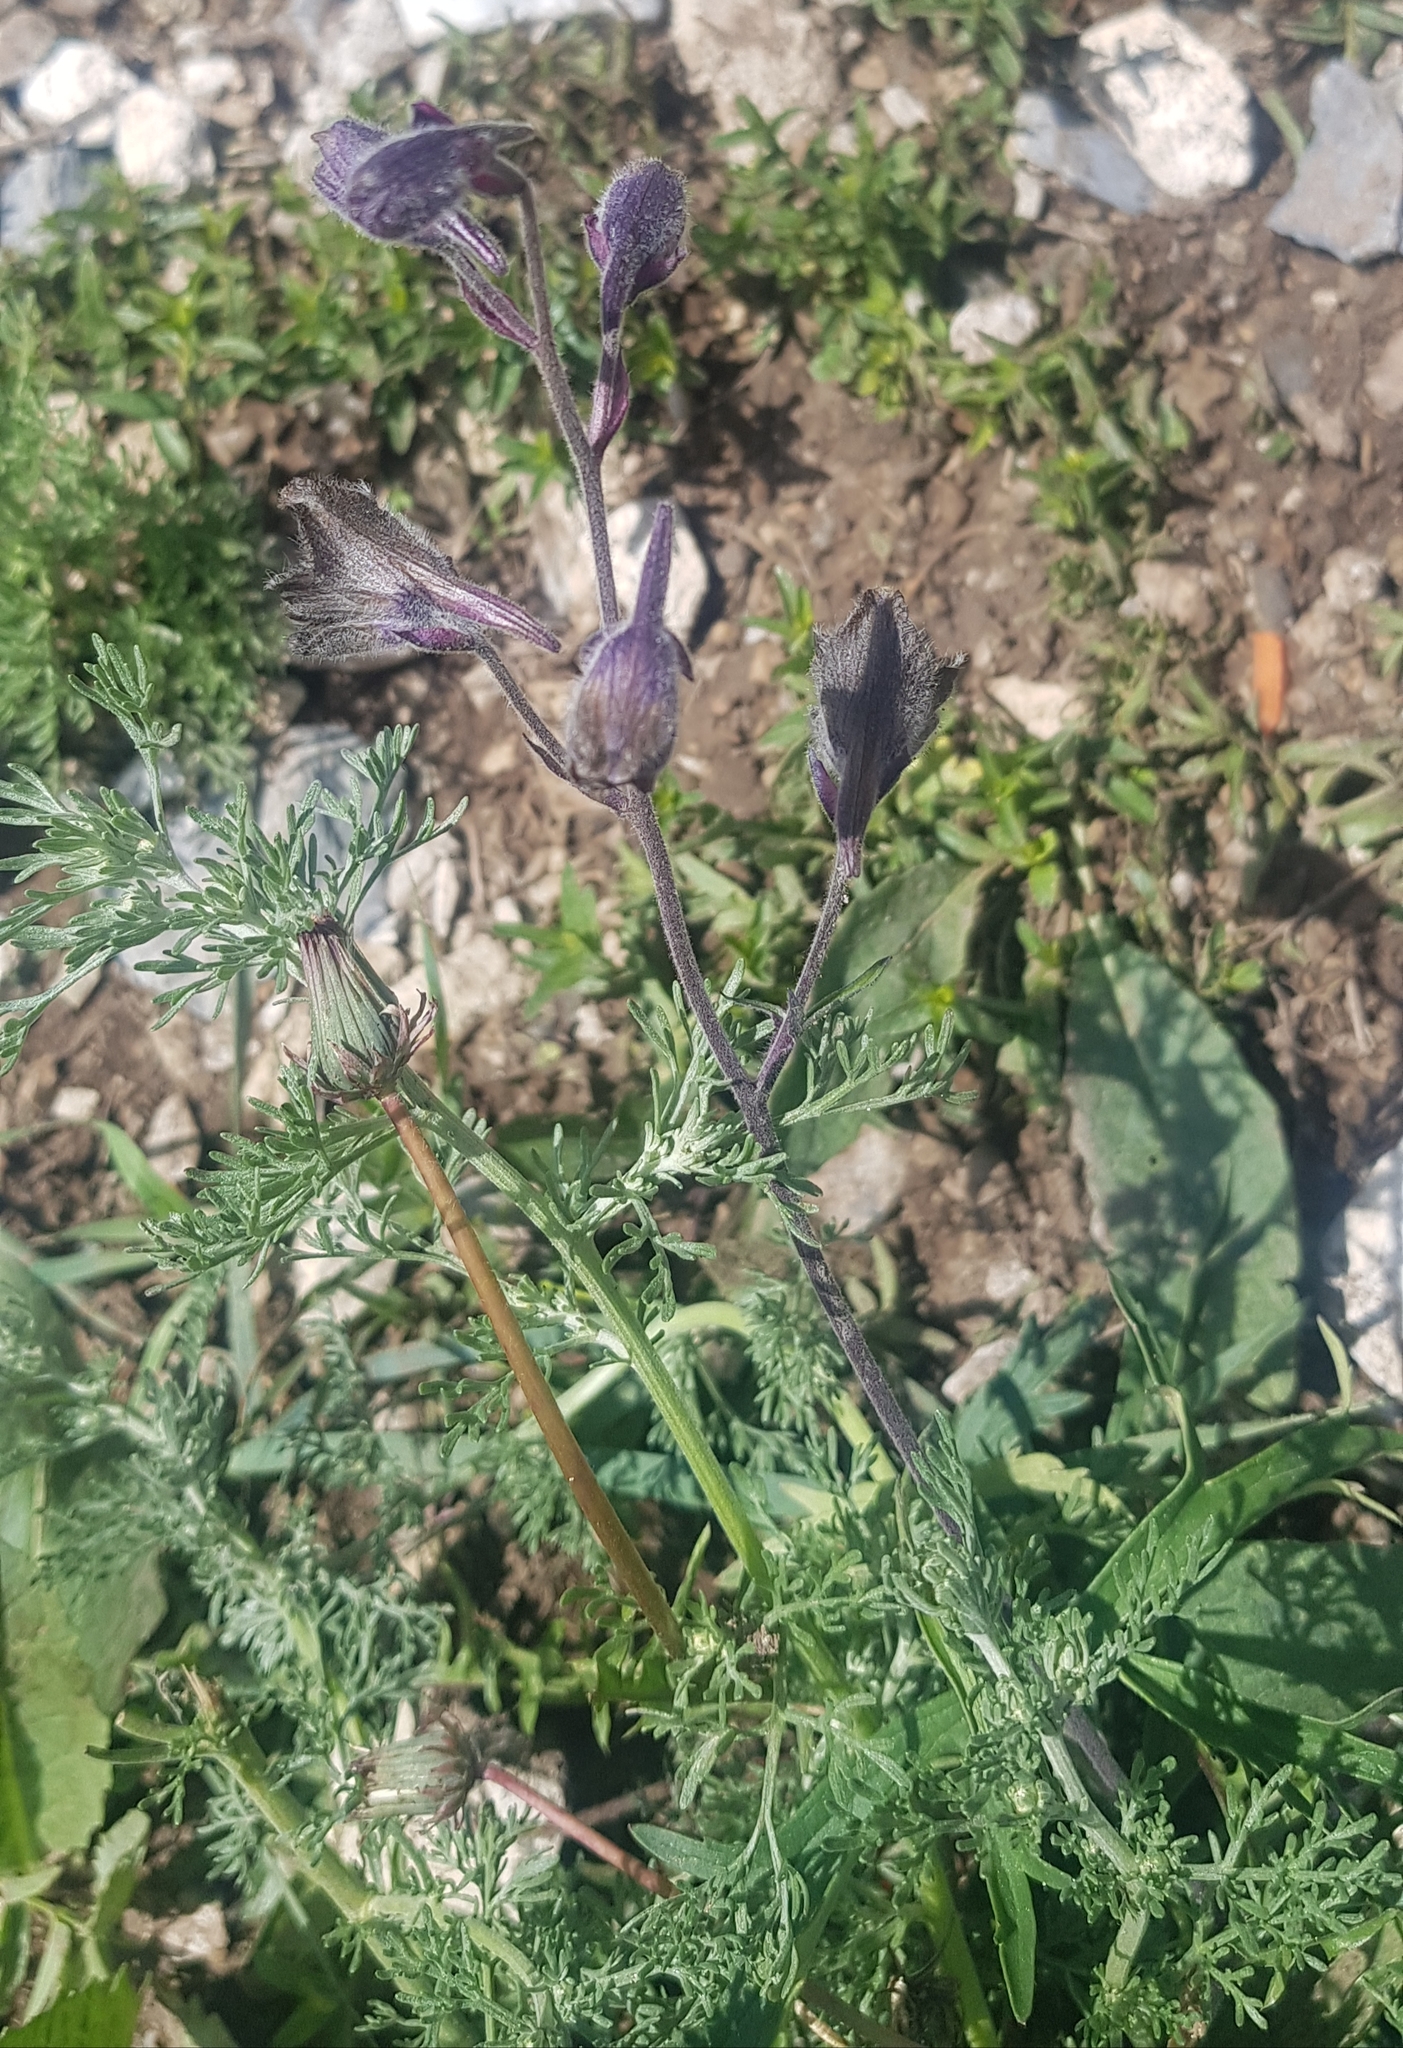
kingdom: Plantae
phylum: Tracheophyta
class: Magnoliopsida
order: Ranunculales
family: Ranunculaceae
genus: Delphinium
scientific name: Delphinium triste
